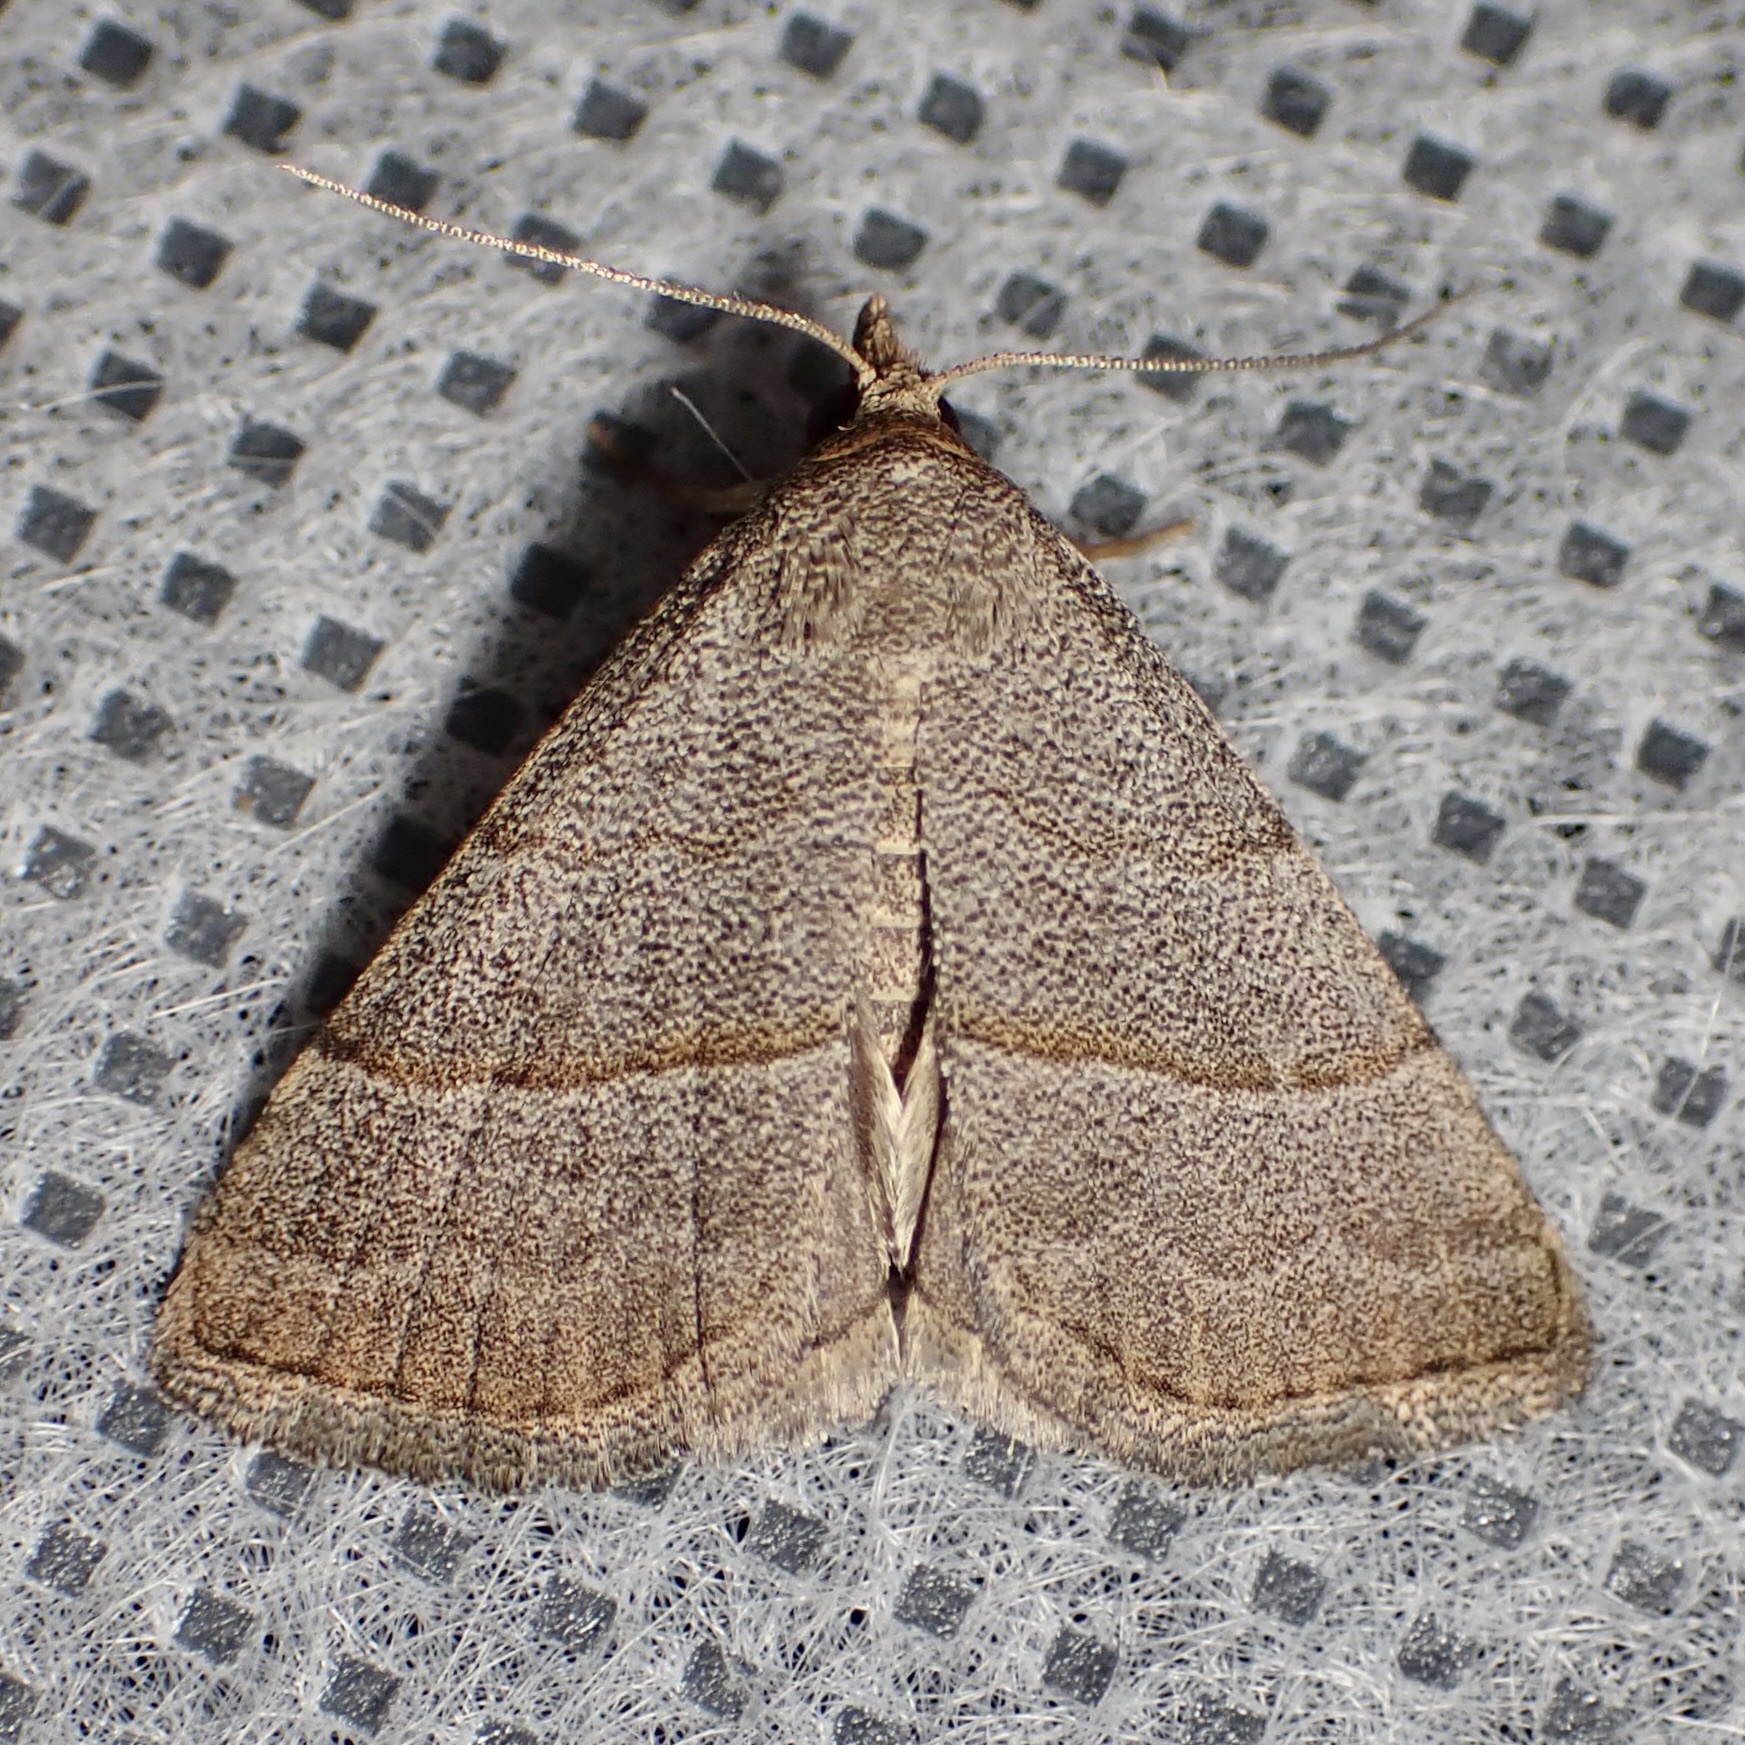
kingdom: Animalia
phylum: Arthropoda
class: Insecta
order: Lepidoptera
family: Erebidae
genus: Zelicodes
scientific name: Zelicodes linearis
